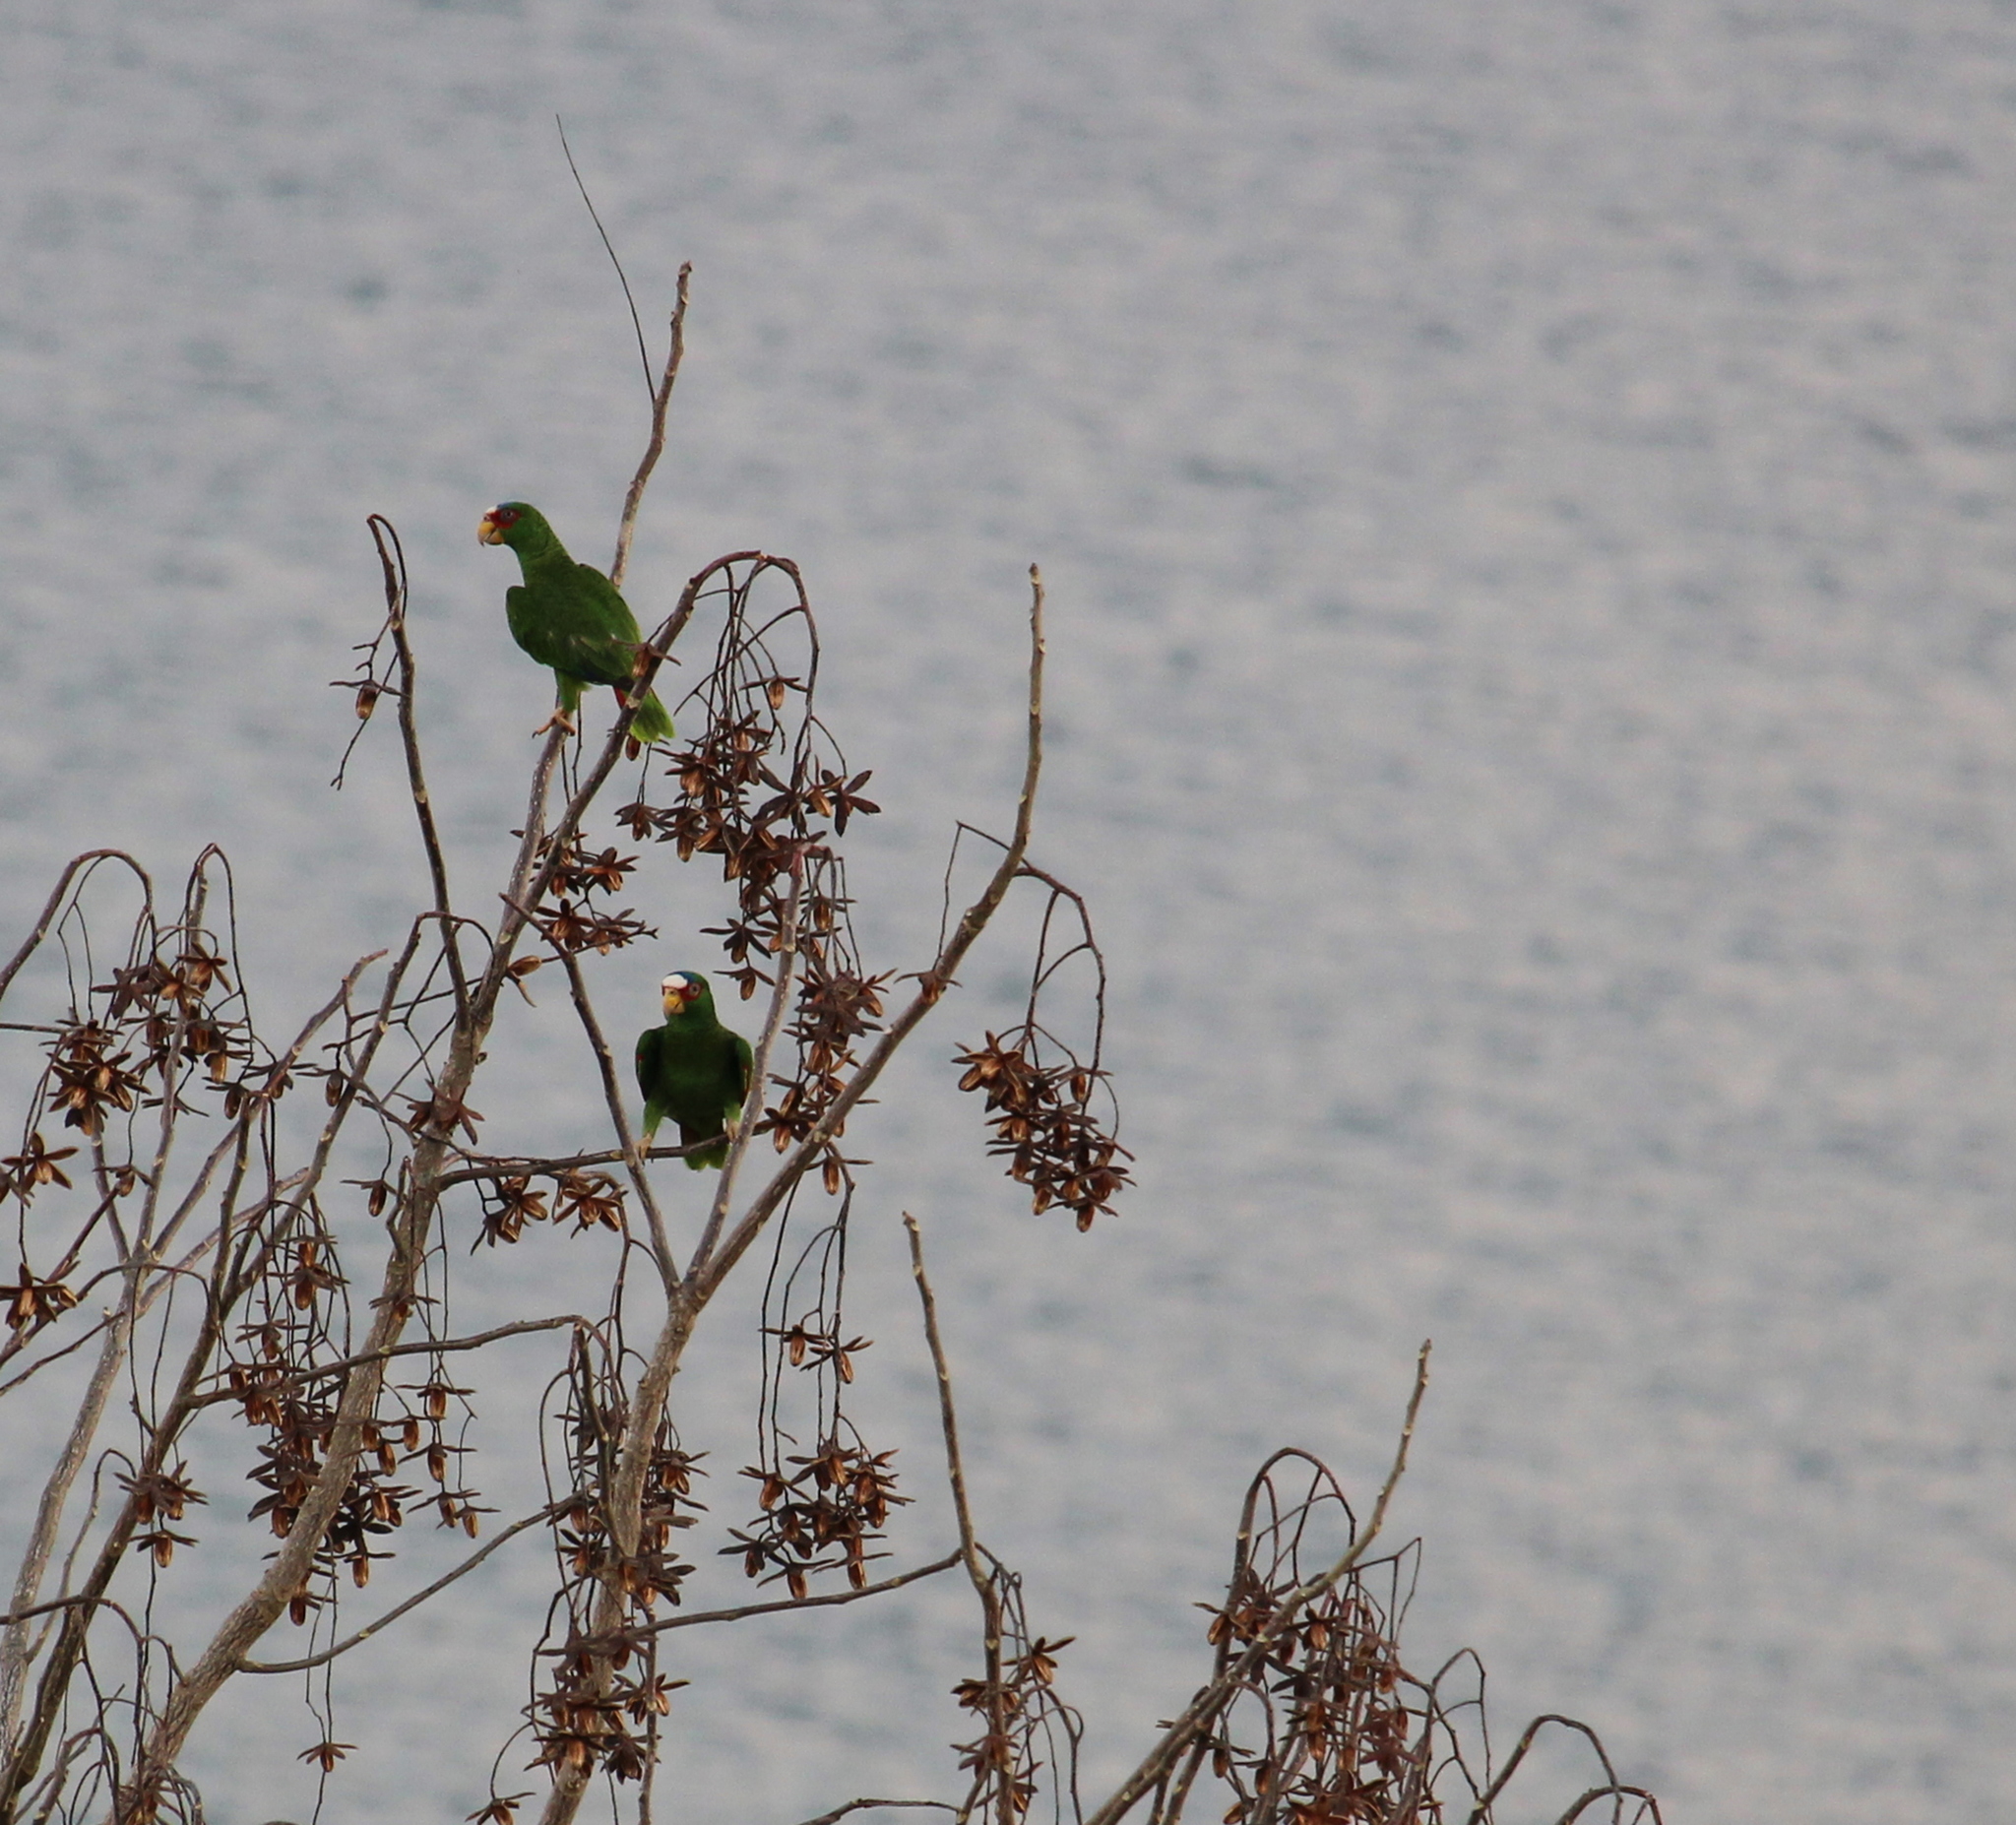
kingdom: Animalia
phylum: Chordata
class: Aves
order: Psittaciformes
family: Psittacidae
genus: Amazona
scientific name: Amazona albifrons
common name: White-fronted amazon
